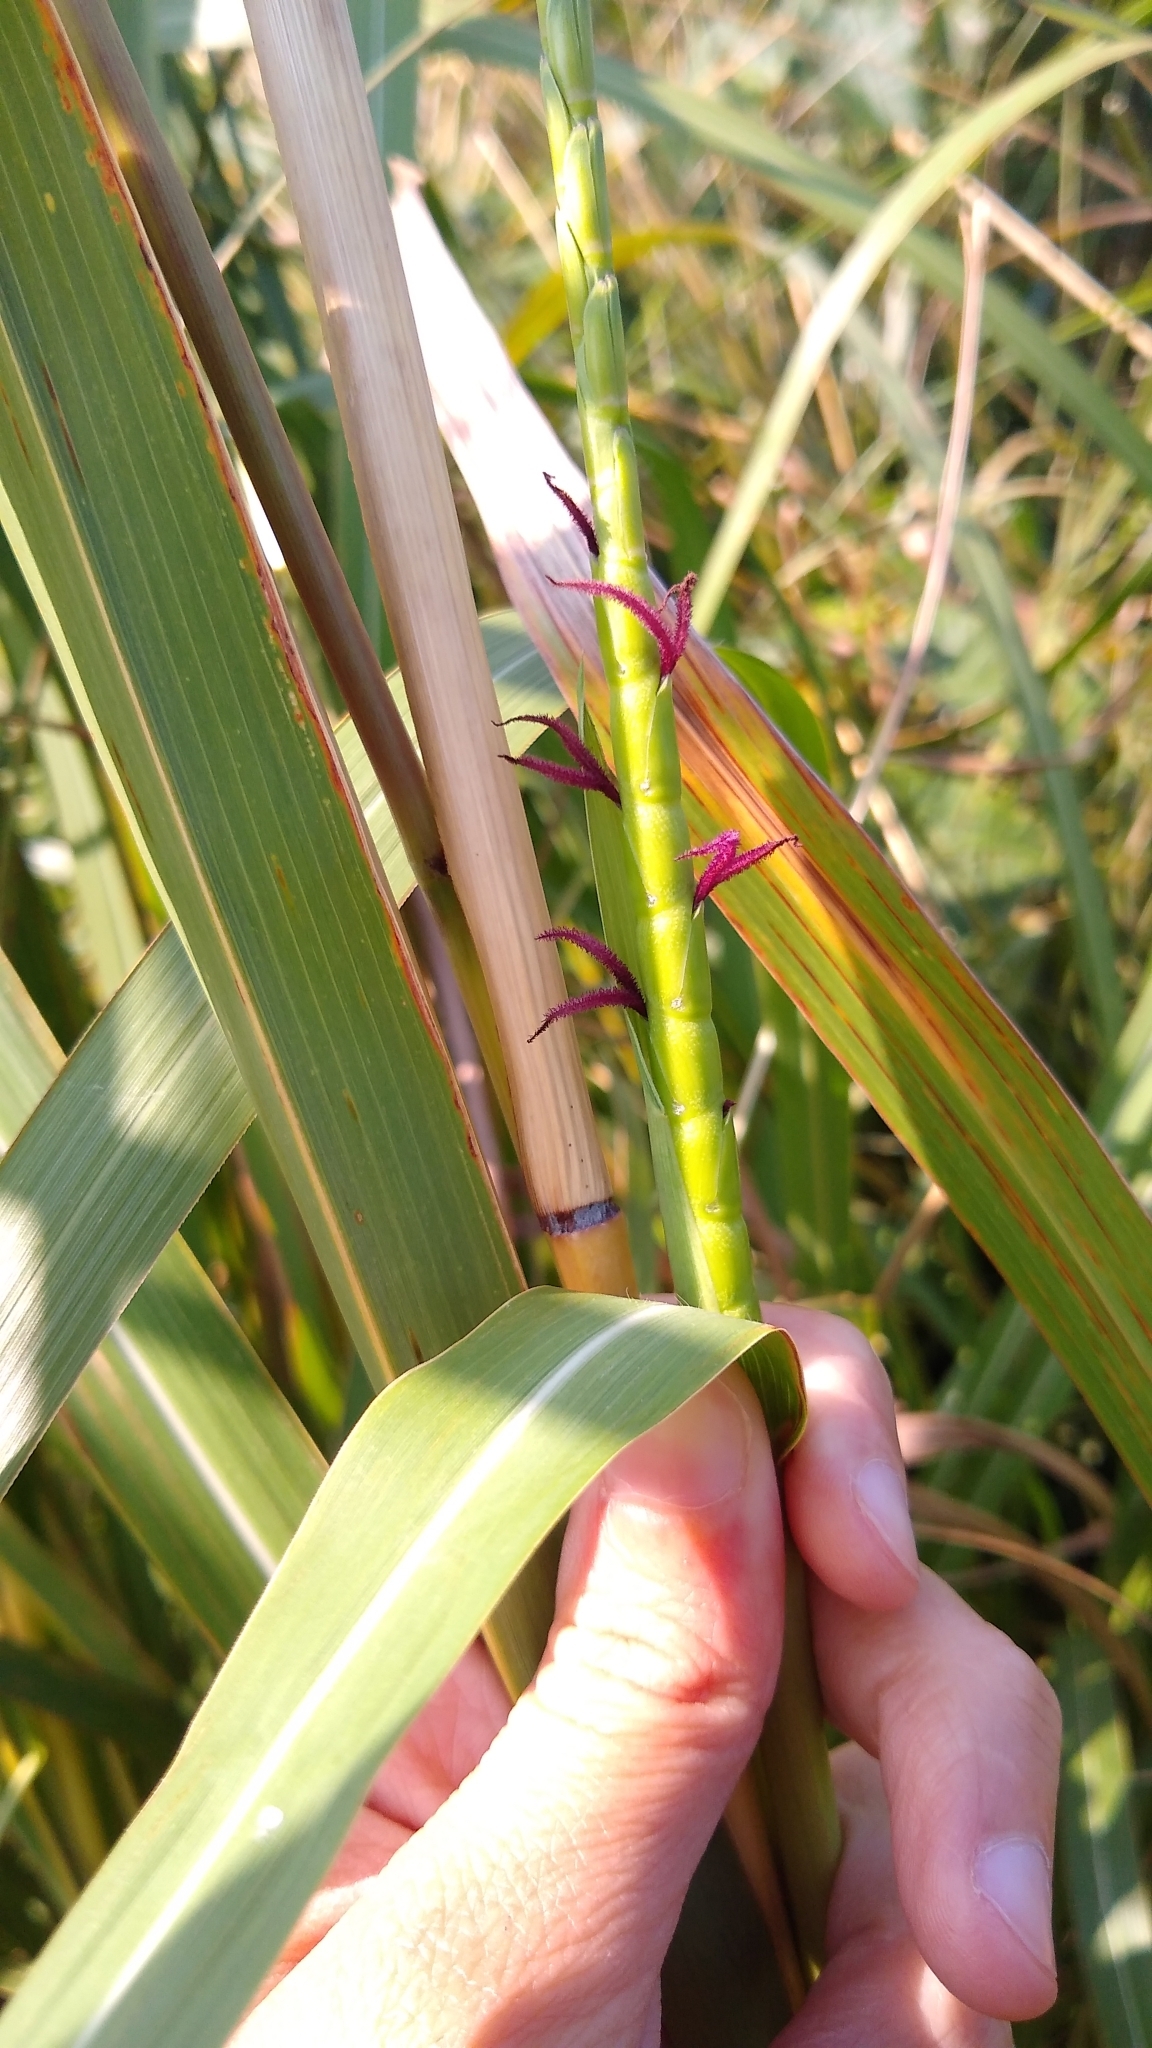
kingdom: Plantae
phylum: Tracheophyta
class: Liliopsida
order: Poales
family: Poaceae
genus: Tripsacum
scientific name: Tripsacum dactyloides
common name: Buffalo-grass
